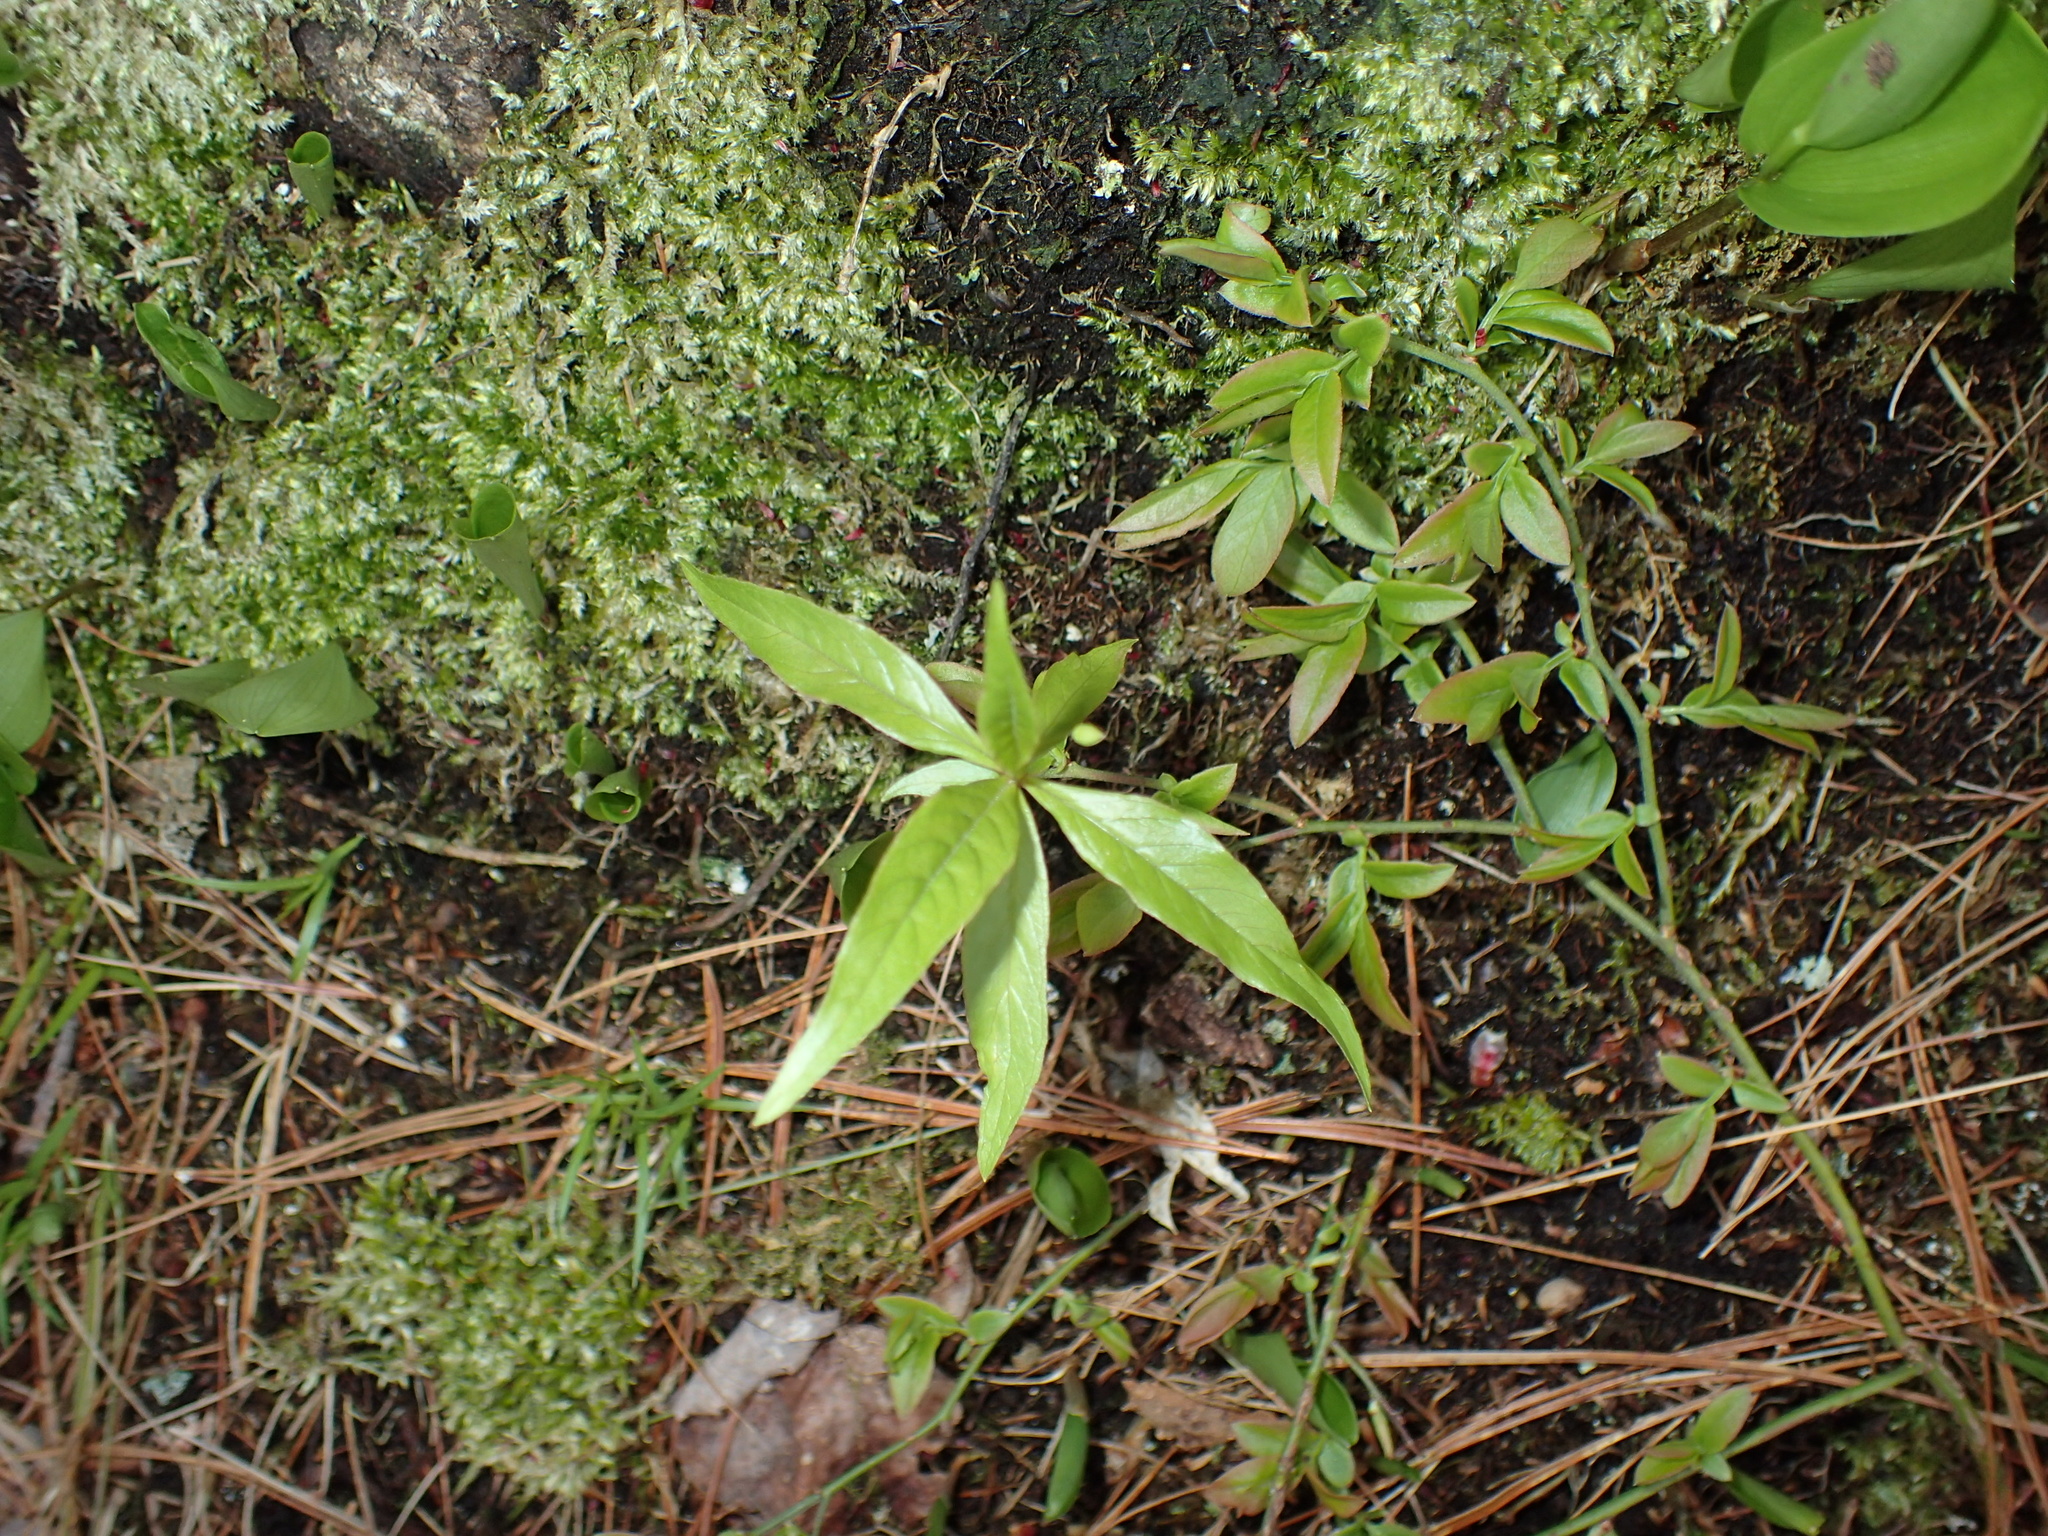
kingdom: Plantae
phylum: Tracheophyta
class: Magnoliopsida
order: Ericales
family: Primulaceae
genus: Lysimachia
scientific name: Lysimachia borealis
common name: American starflower
